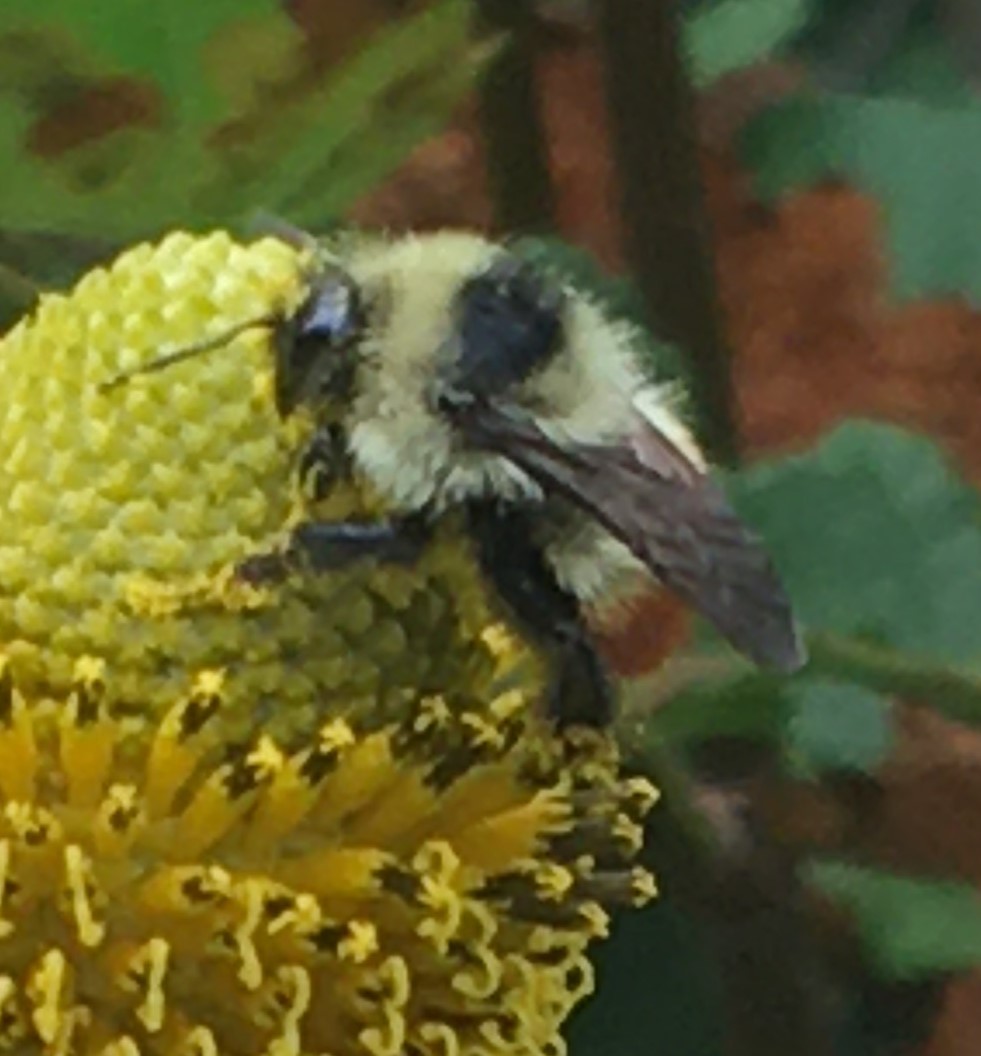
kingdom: Animalia
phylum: Arthropoda
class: Insecta
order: Hymenoptera
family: Apidae
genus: Bombus
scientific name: Bombus rufocinctus
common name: Red-belted bumble bee
